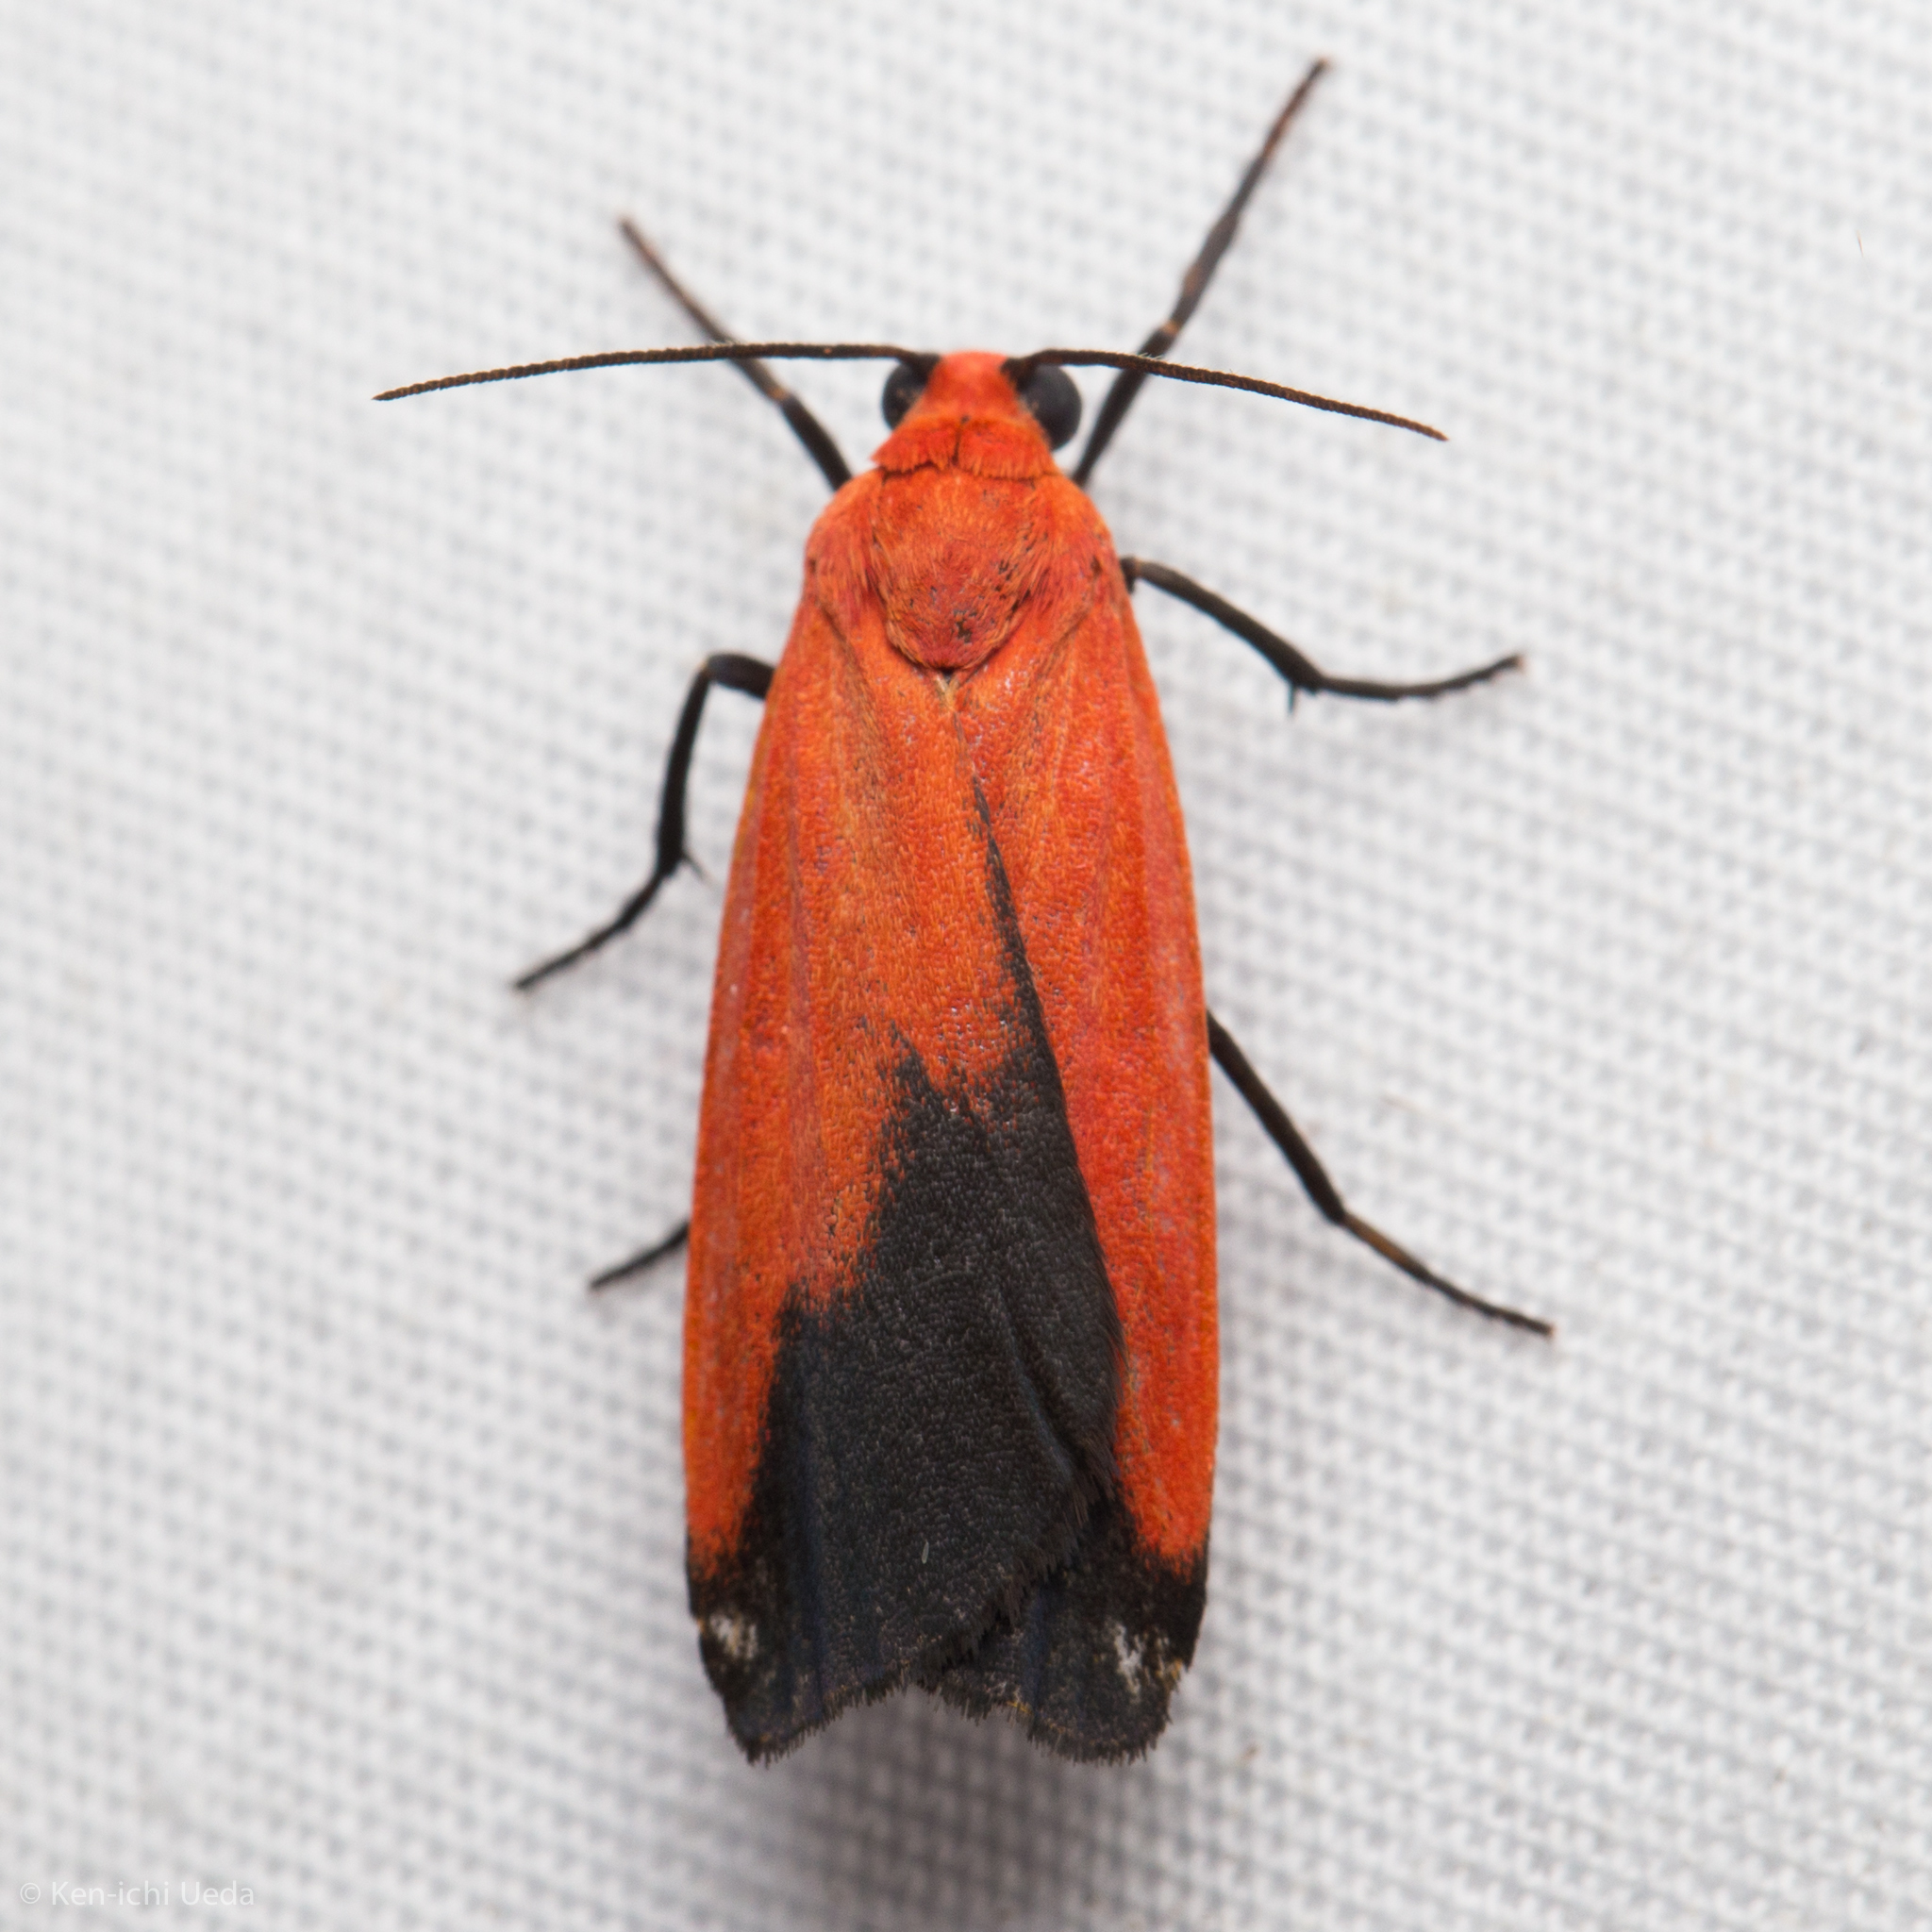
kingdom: Animalia
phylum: Arthropoda
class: Insecta
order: Lepidoptera
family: Erebidae
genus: Ptychoglene
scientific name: Ptychoglene coccinea
